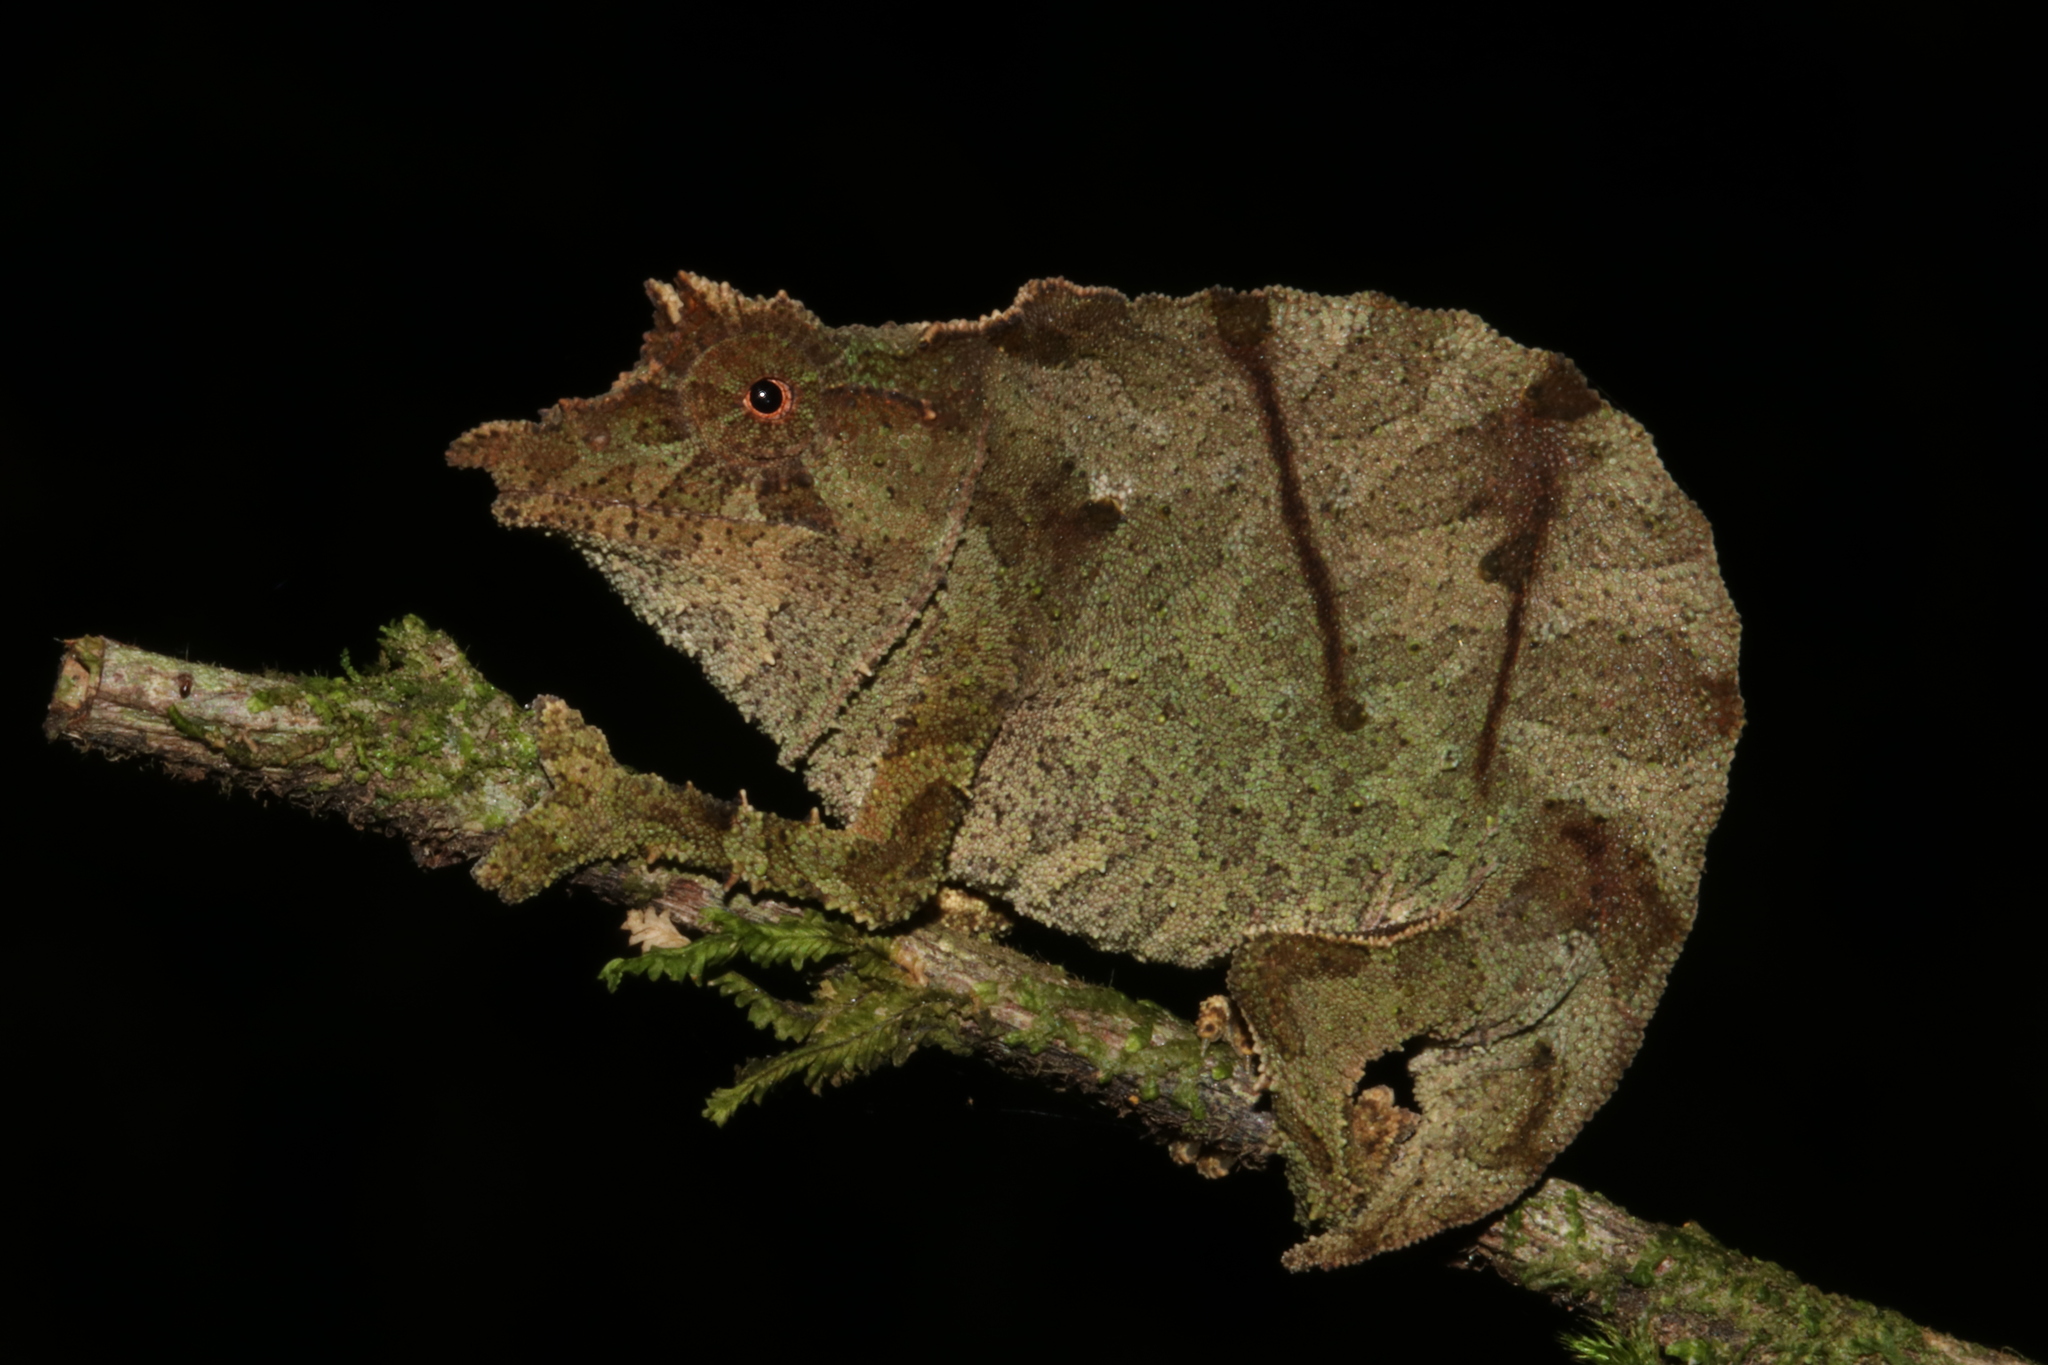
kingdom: Animalia
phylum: Chordata
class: Squamata
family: Chamaeleonidae
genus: Rhampholeon
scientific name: Rhampholeon moyeri
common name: Moyer's pygmy chameleon
